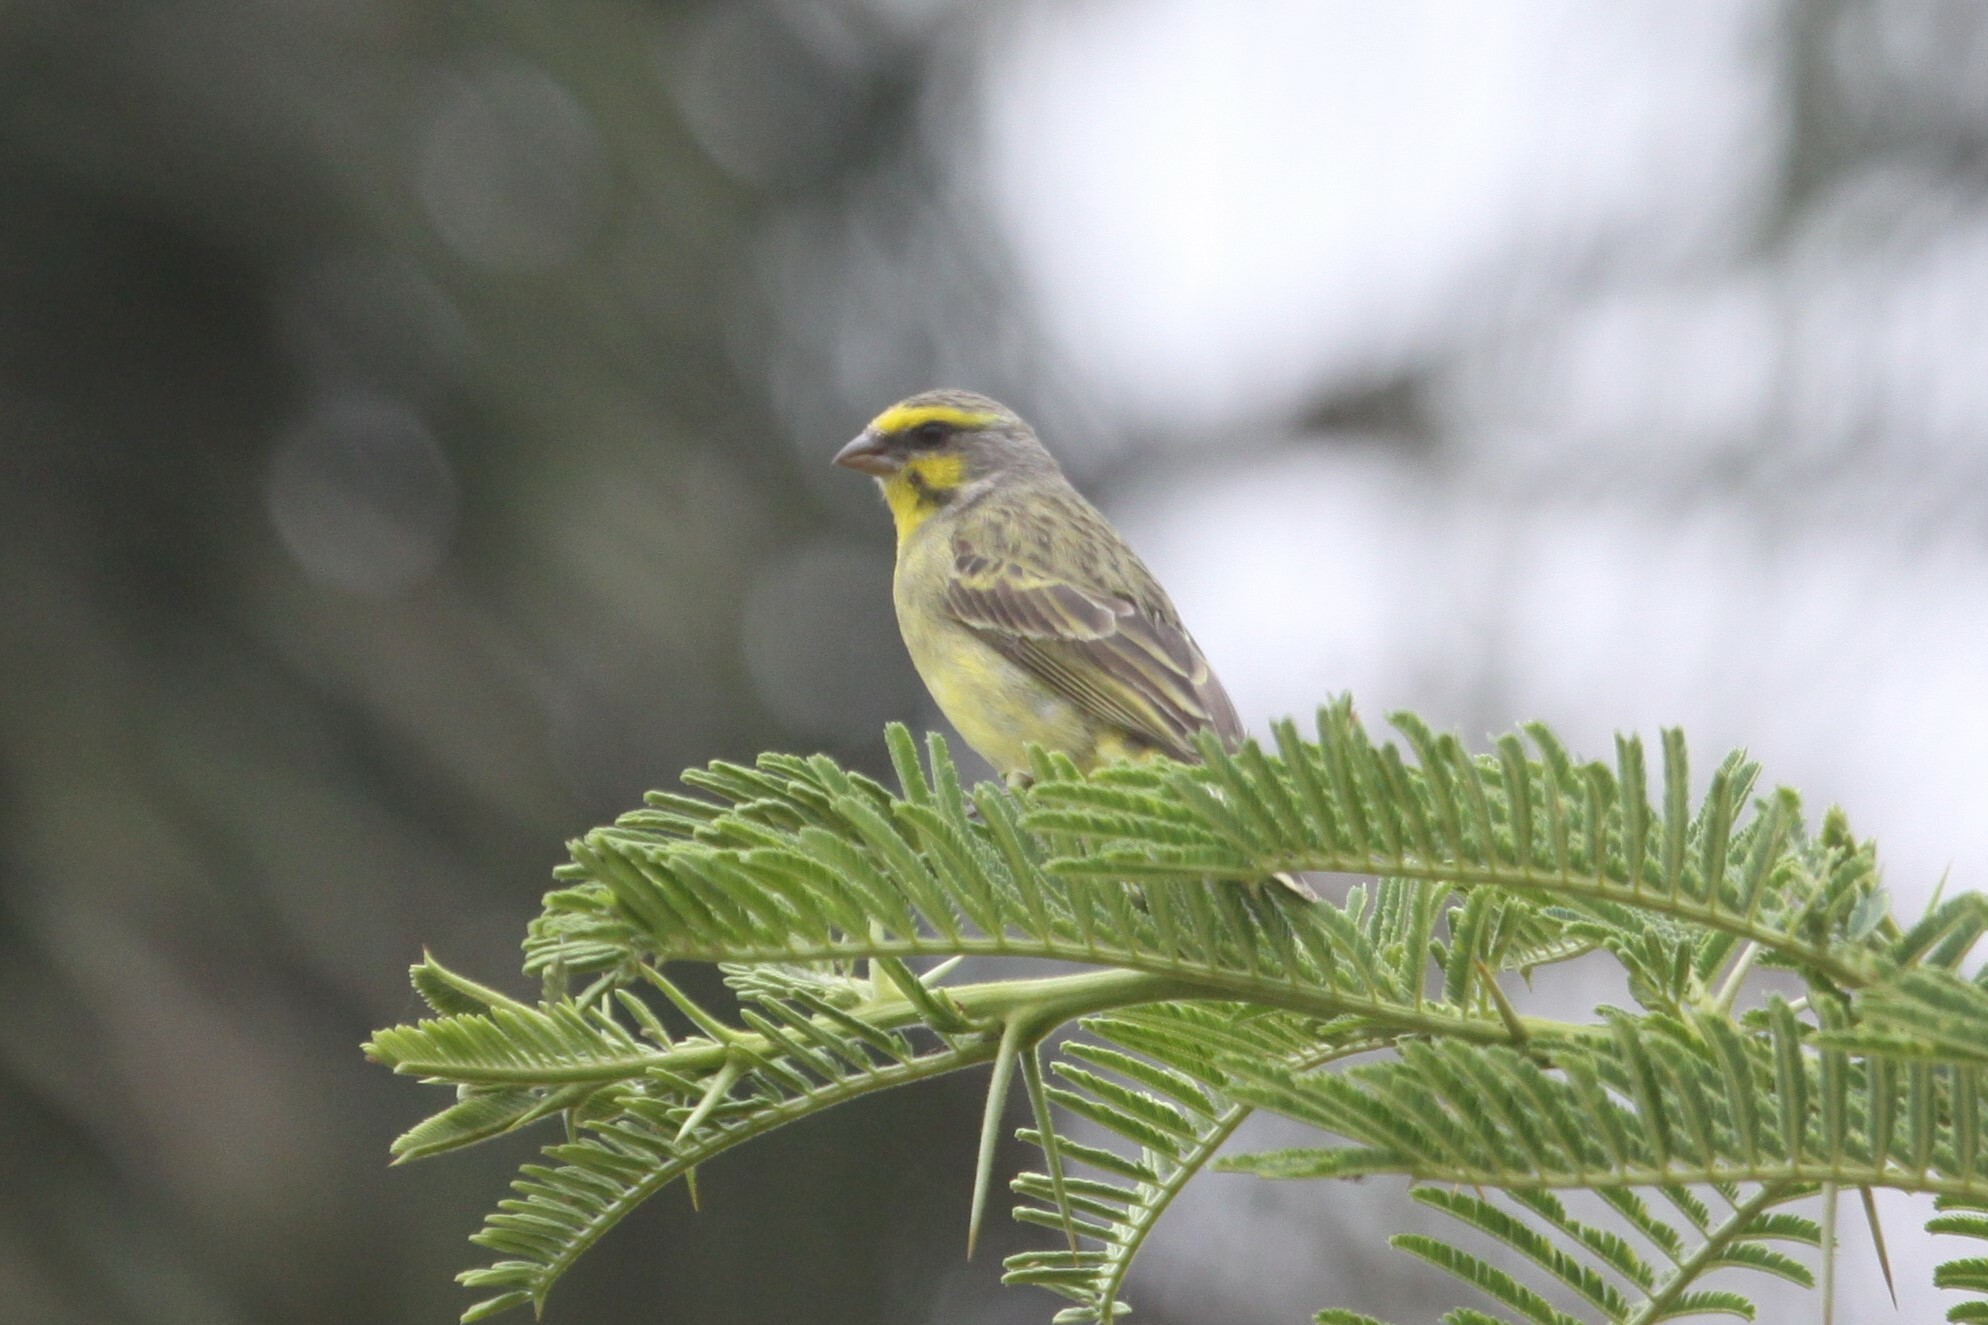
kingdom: Animalia
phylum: Chordata
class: Aves
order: Passeriformes
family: Fringillidae
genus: Crithagra
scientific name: Crithagra mozambica
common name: Yellow-fronted canary
